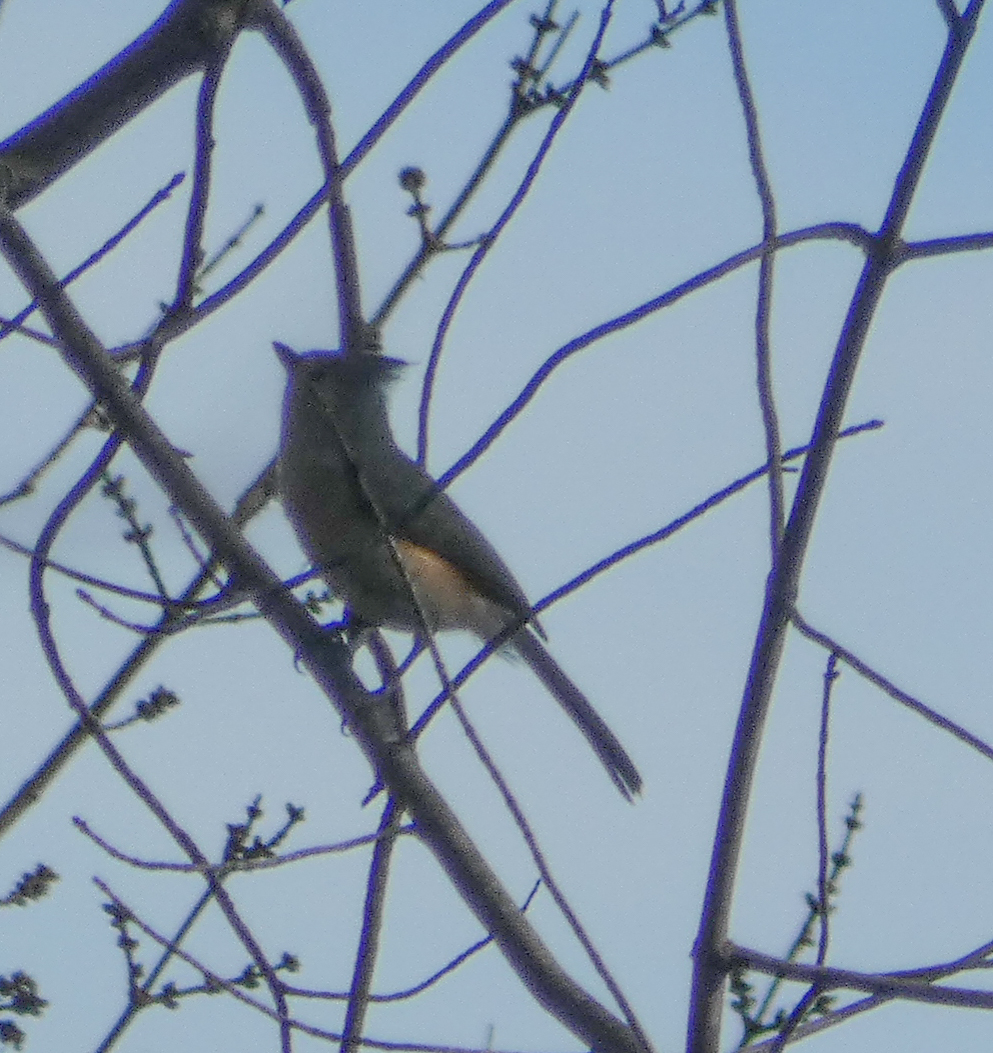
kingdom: Animalia
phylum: Chordata
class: Aves
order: Passeriformes
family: Paridae
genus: Baeolophus
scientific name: Baeolophus bicolor
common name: Tufted titmouse
